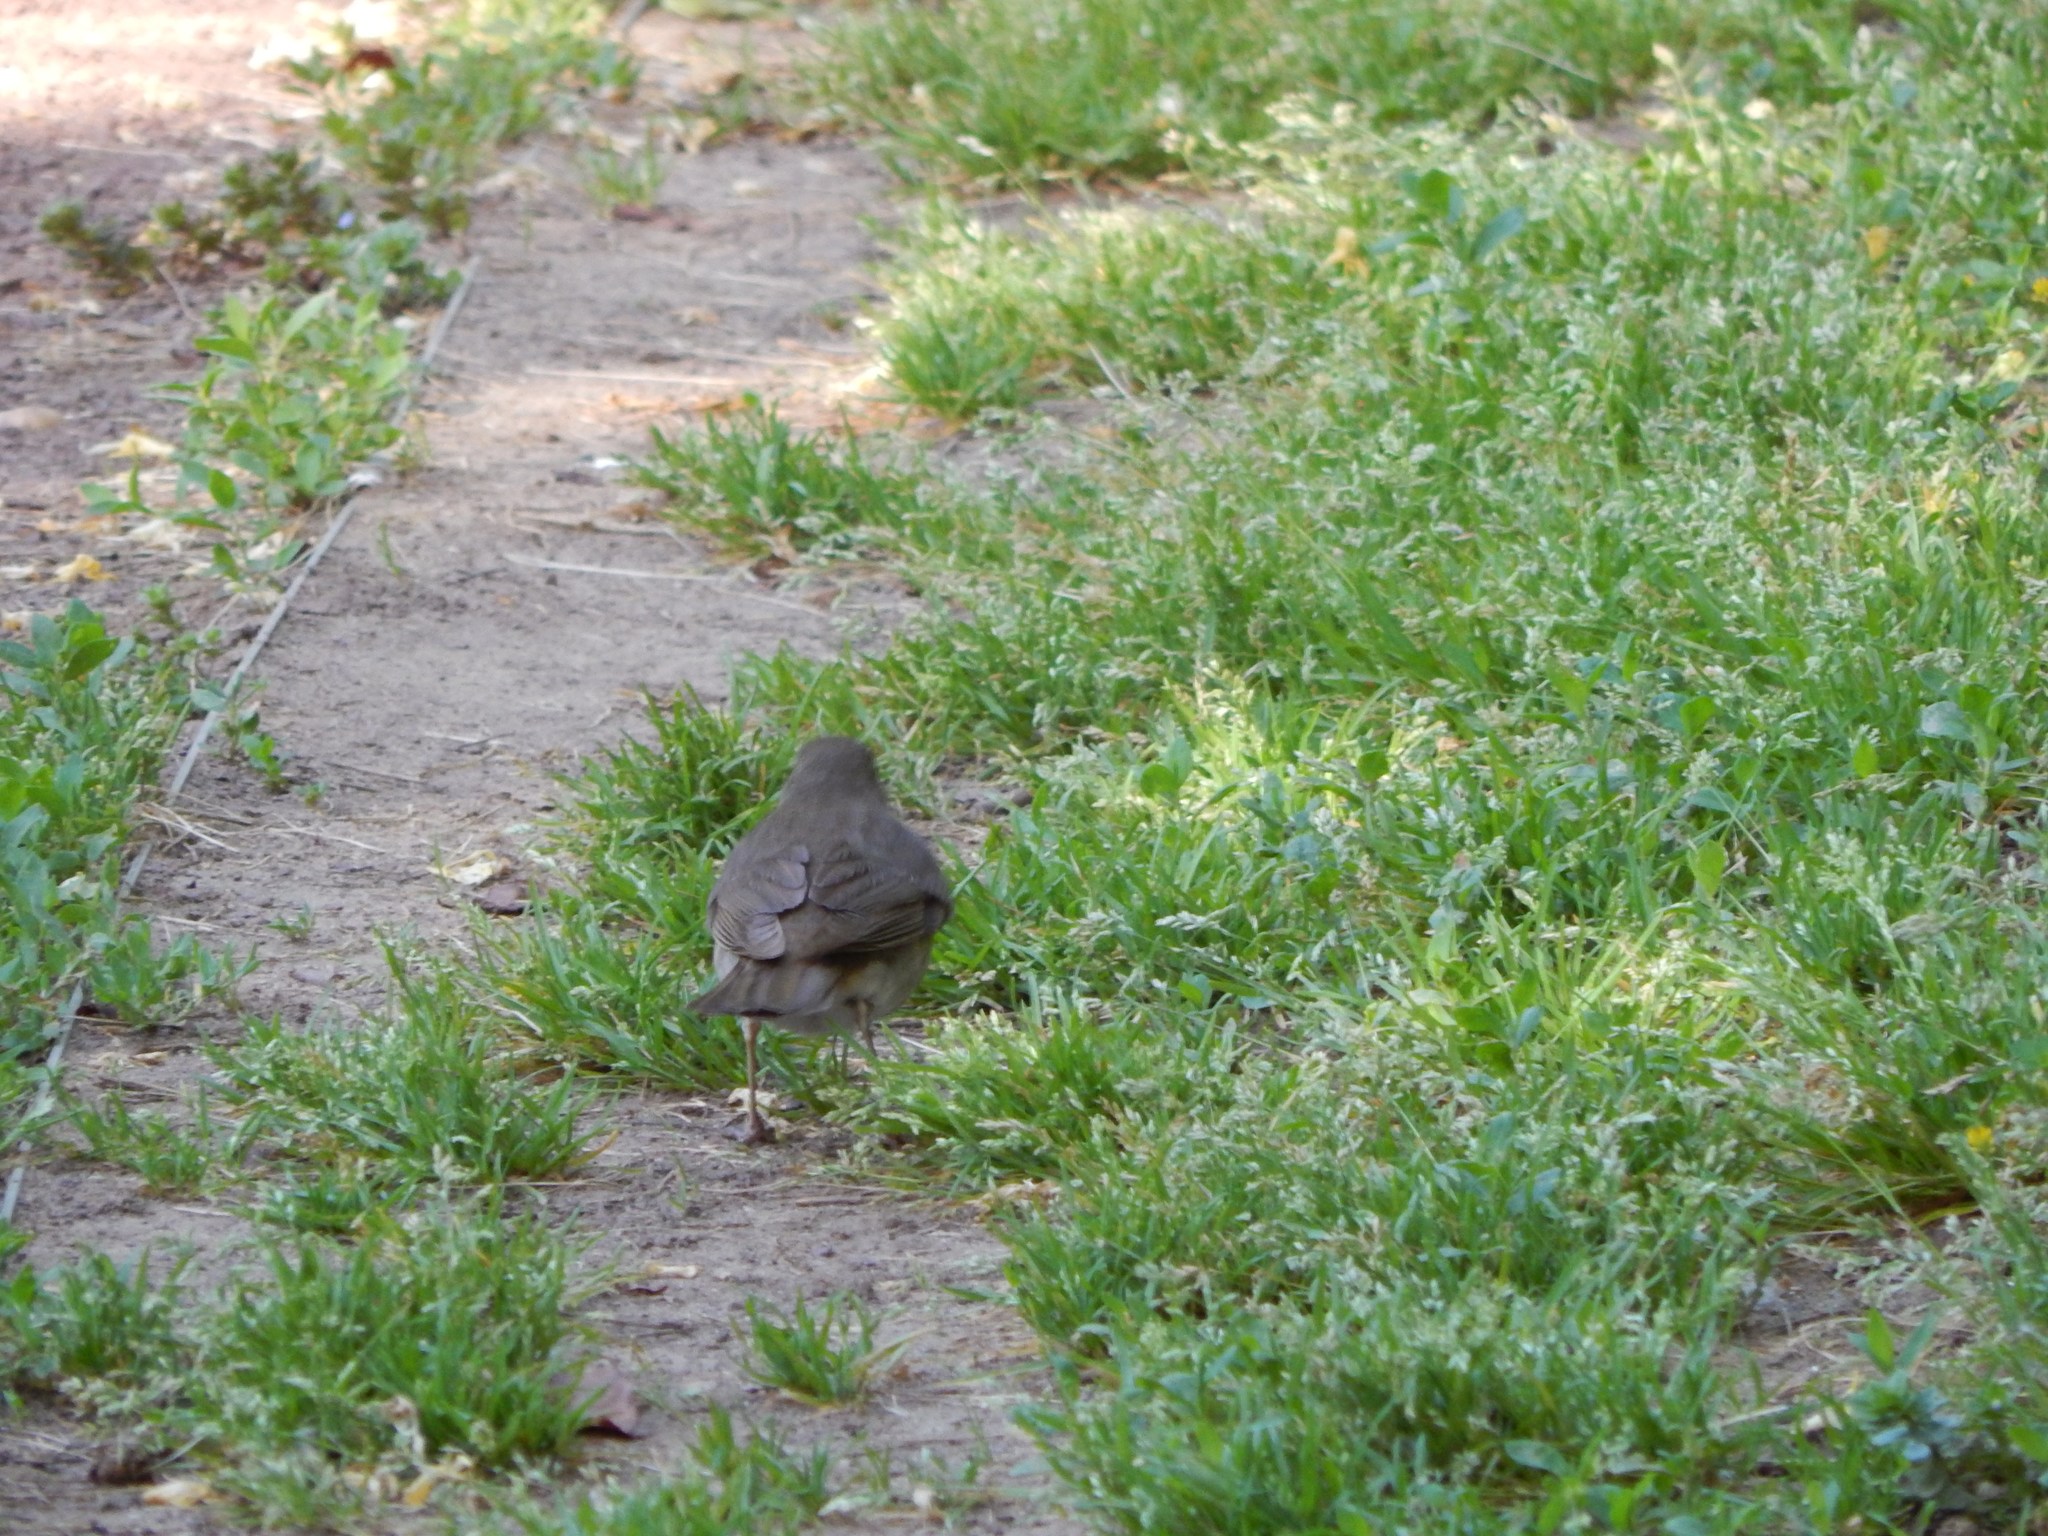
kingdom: Animalia
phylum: Chordata
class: Aves
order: Passeriformes
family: Turdidae
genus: Catharus
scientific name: Catharus minimus
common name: Grey-cheeked thrush
